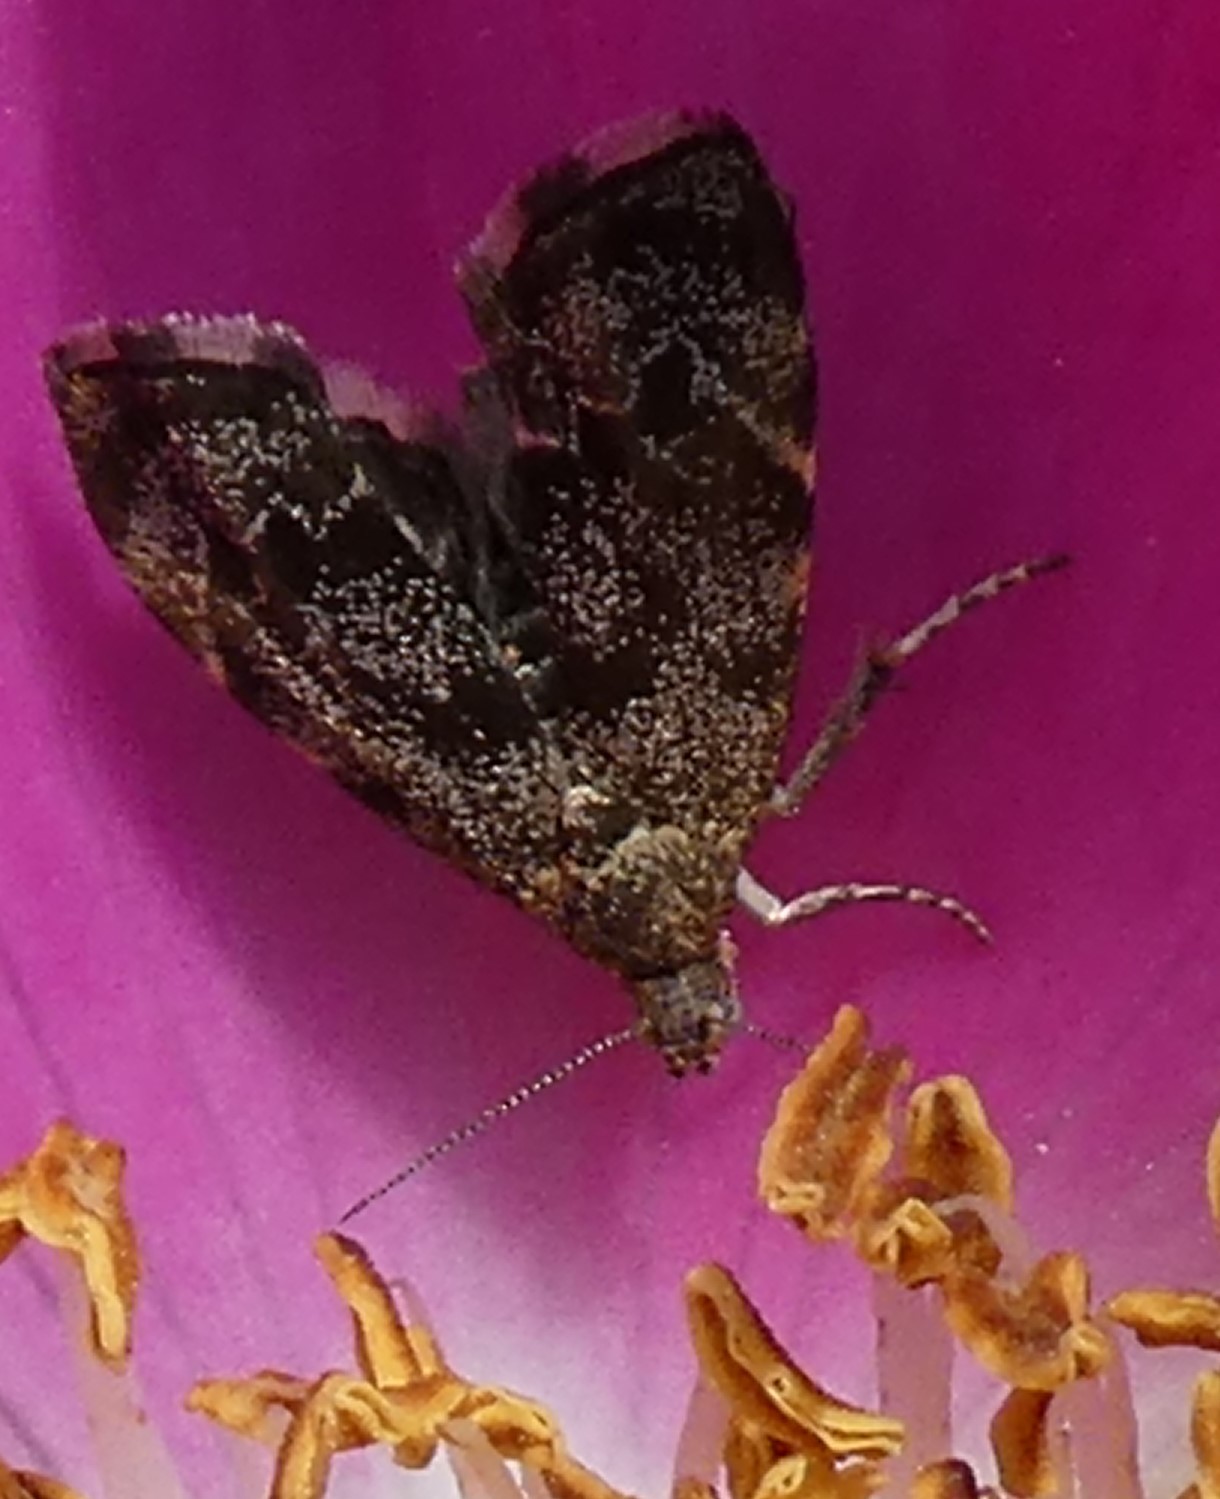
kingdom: Animalia
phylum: Arthropoda
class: Insecta
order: Lepidoptera
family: Choreutidae
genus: Anthophila
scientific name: Anthophila fabriciana
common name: Nettle-tap
